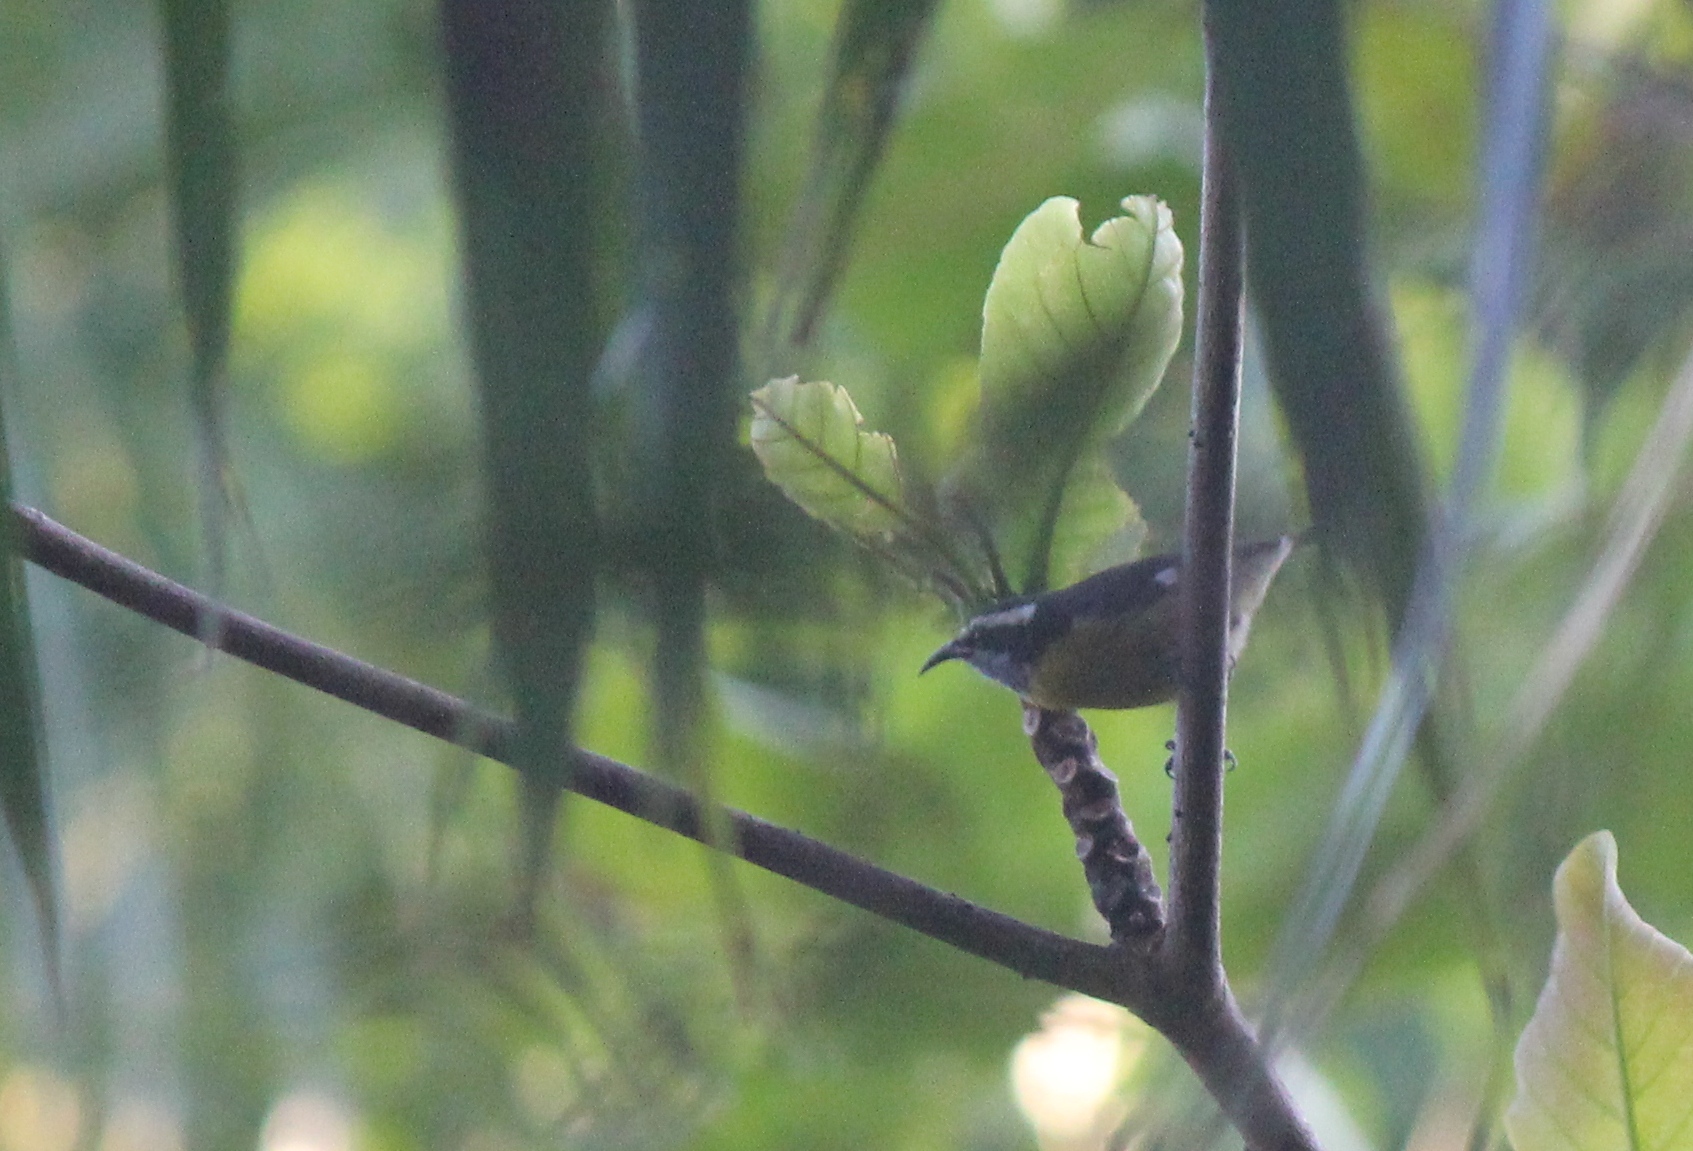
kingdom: Animalia
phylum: Chordata
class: Aves
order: Passeriformes
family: Thraupidae
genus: Coereba
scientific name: Coereba flaveola
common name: Bananaquit
